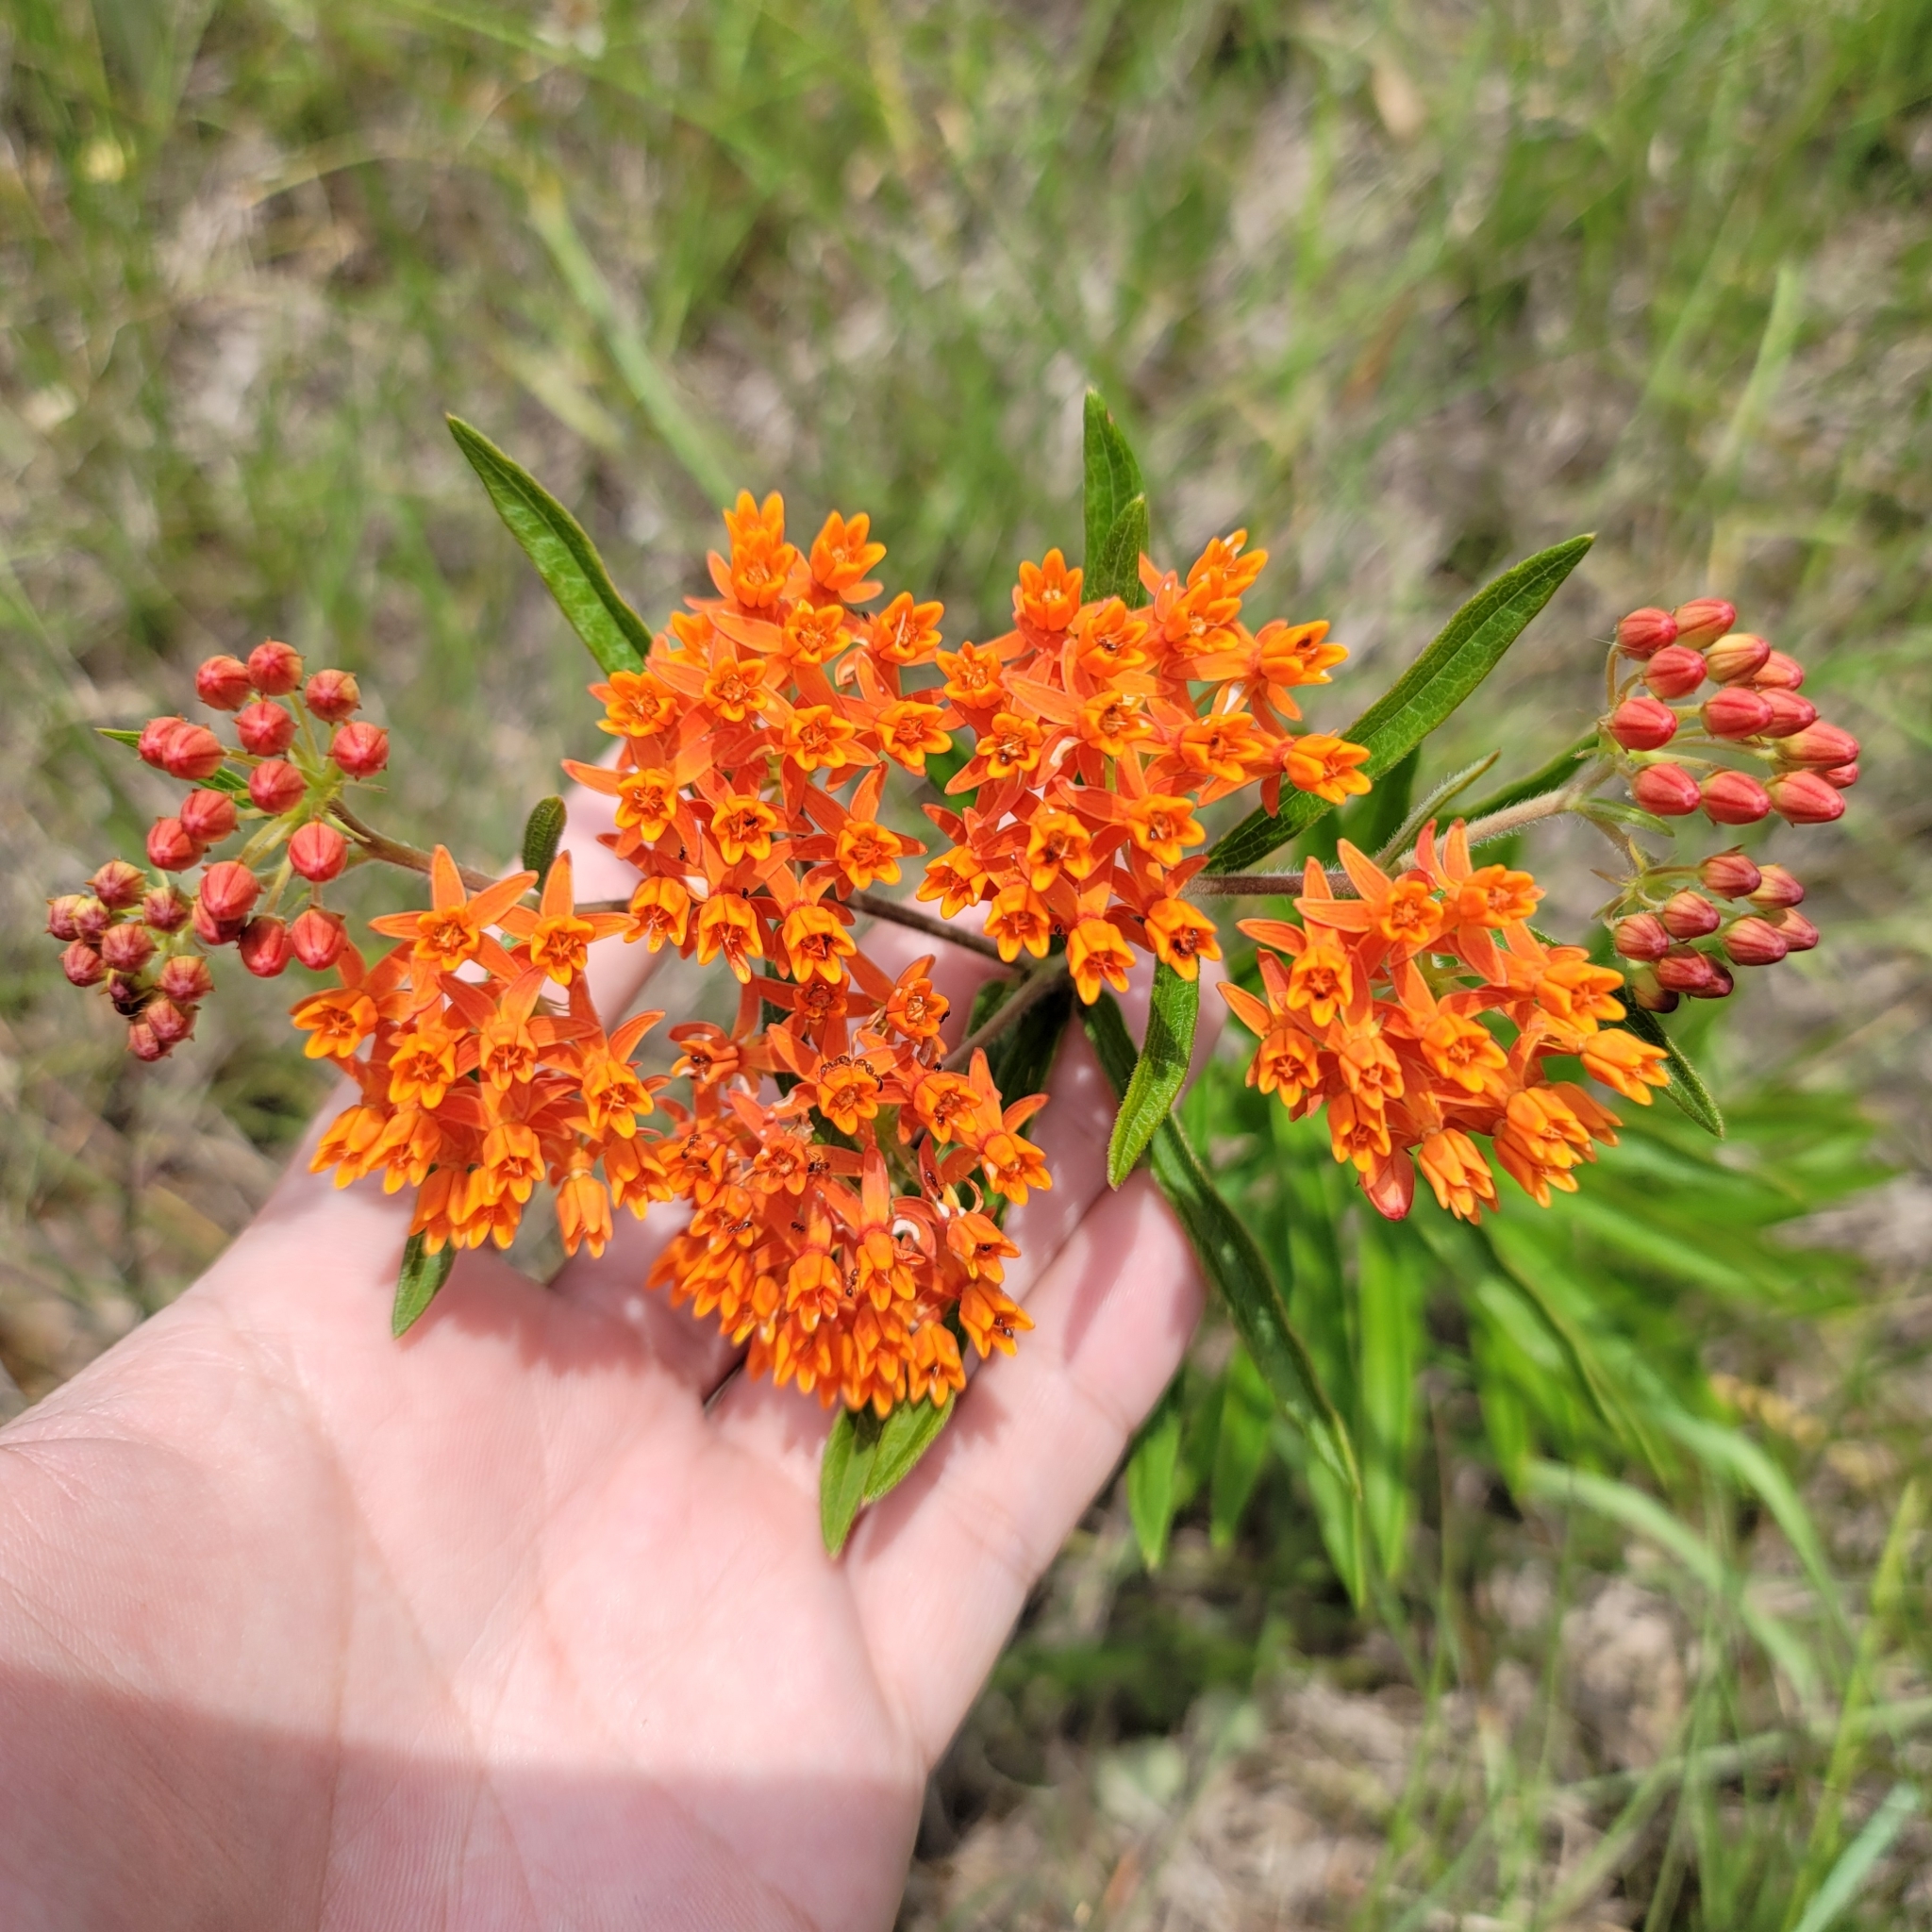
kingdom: Plantae
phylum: Tracheophyta
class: Magnoliopsida
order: Gentianales
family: Apocynaceae
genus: Asclepias
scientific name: Asclepias tuberosa
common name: Butterfly milkweed
